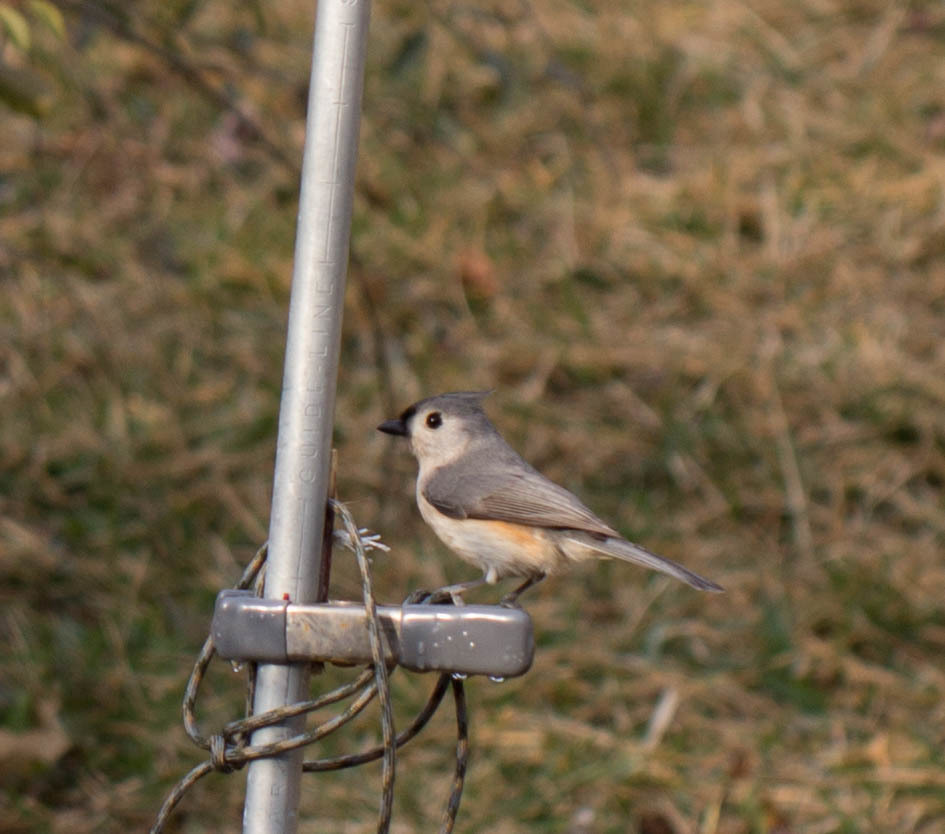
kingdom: Animalia
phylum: Chordata
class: Aves
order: Passeriformes
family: Paridae
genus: Baeolophus
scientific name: Baeolophus bicolor
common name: Tufted titmouse
